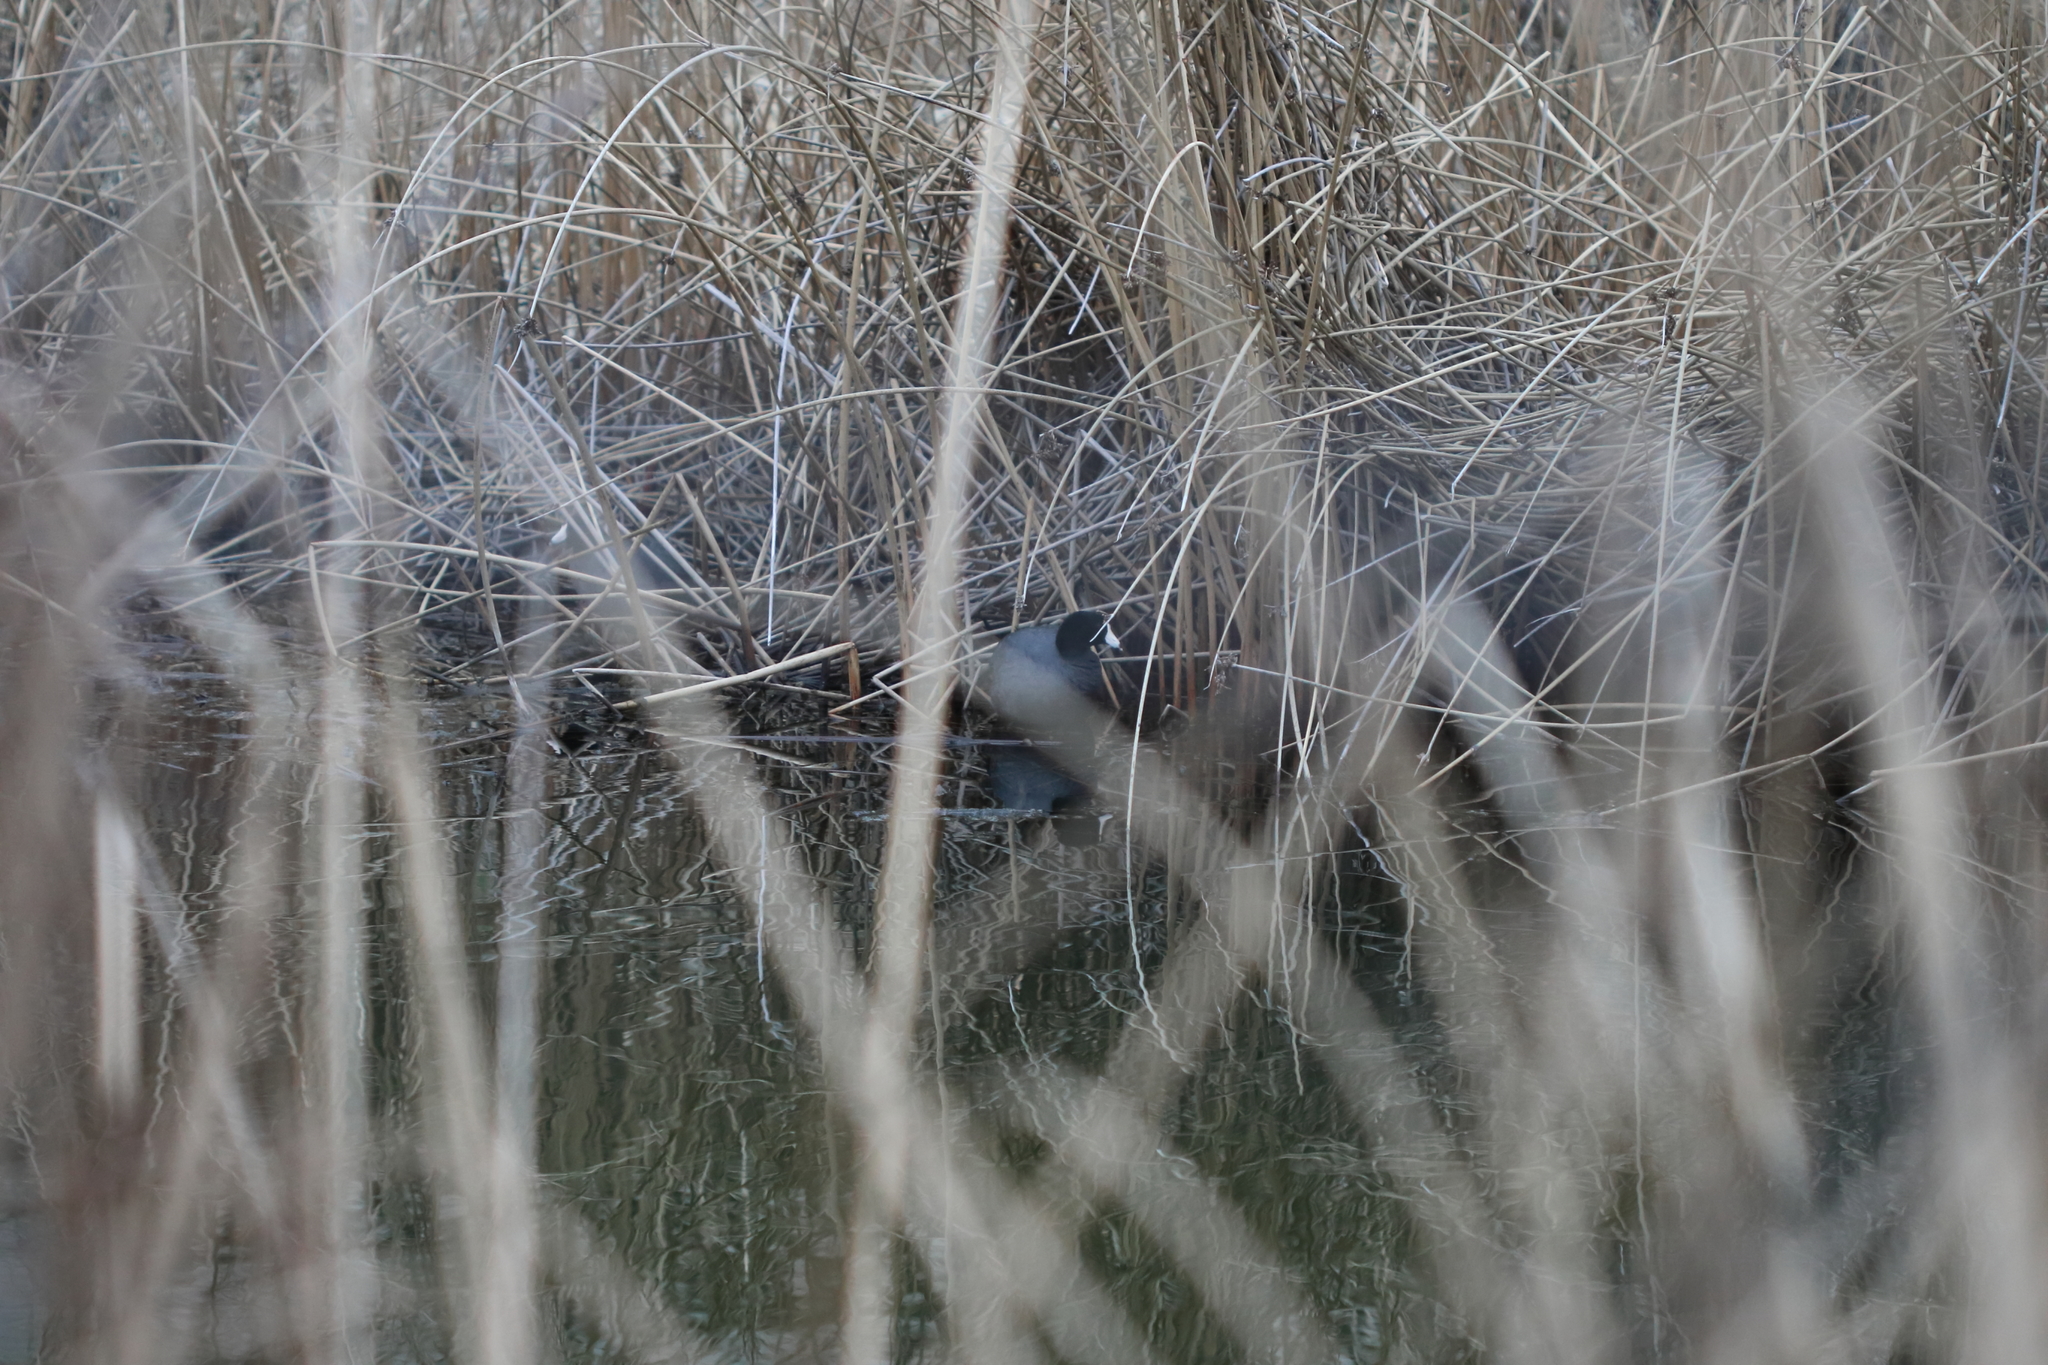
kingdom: Animalia
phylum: Chordata
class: Aves
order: Gruiformes
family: Rallidae
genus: Fulica
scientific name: Fulica americana
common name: American coot
